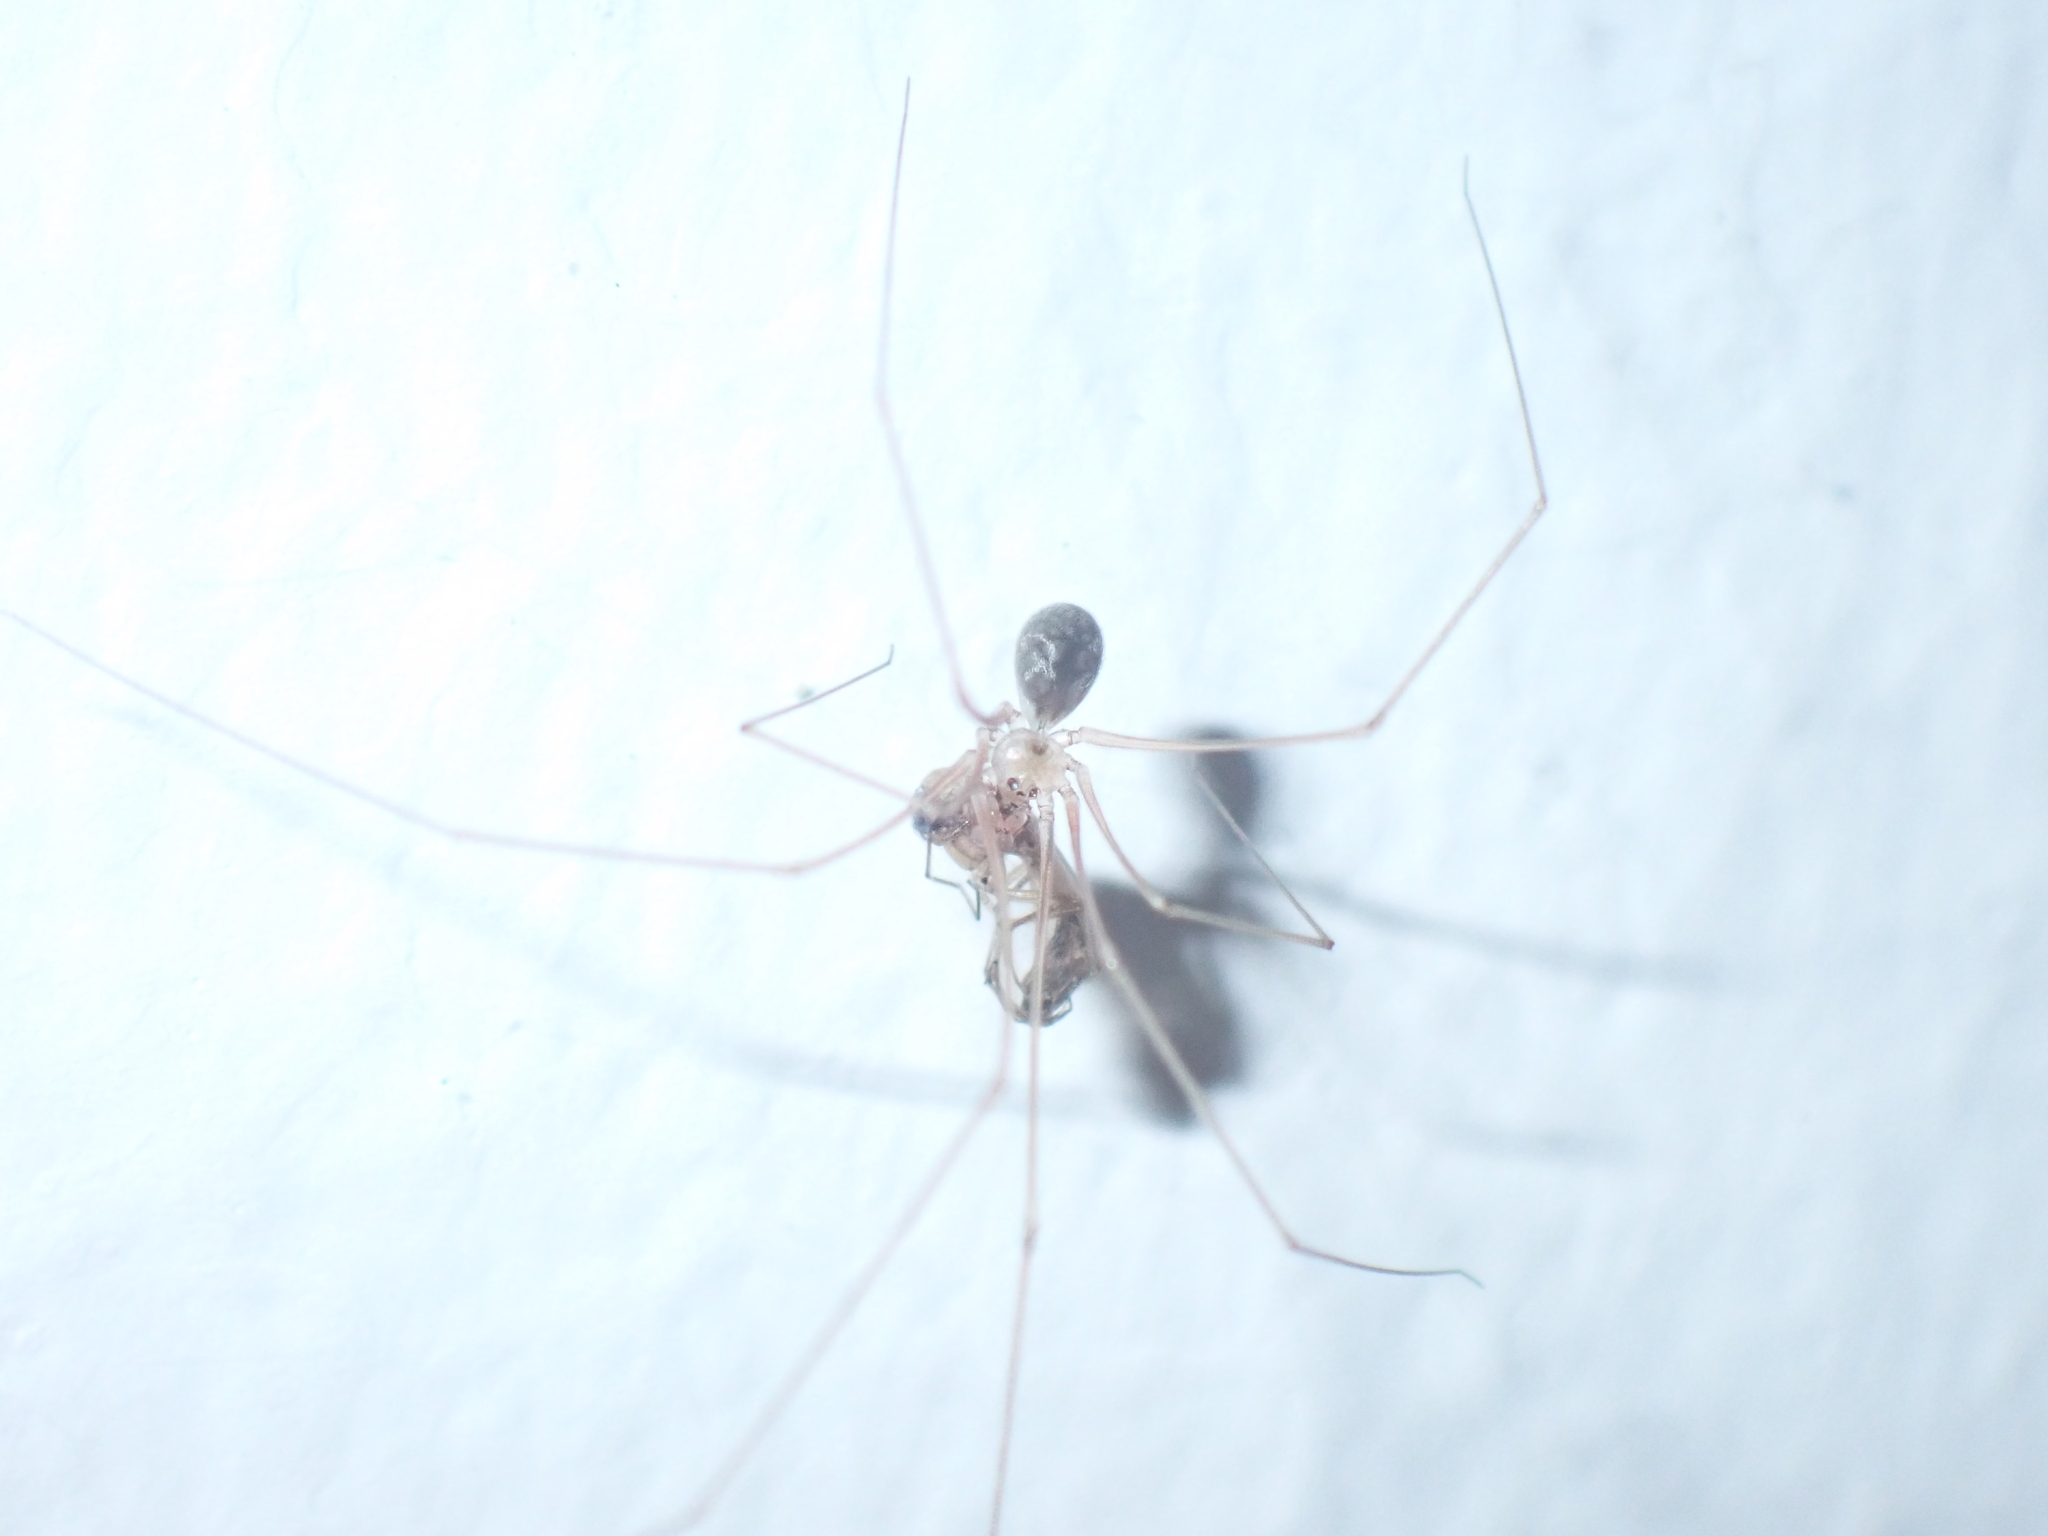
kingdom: Animalia
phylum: Arthropoda
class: Arachnida
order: Araneae
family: Pholcidae
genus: Micropholcus
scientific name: Micropholcus fauroti
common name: Cellar spider
